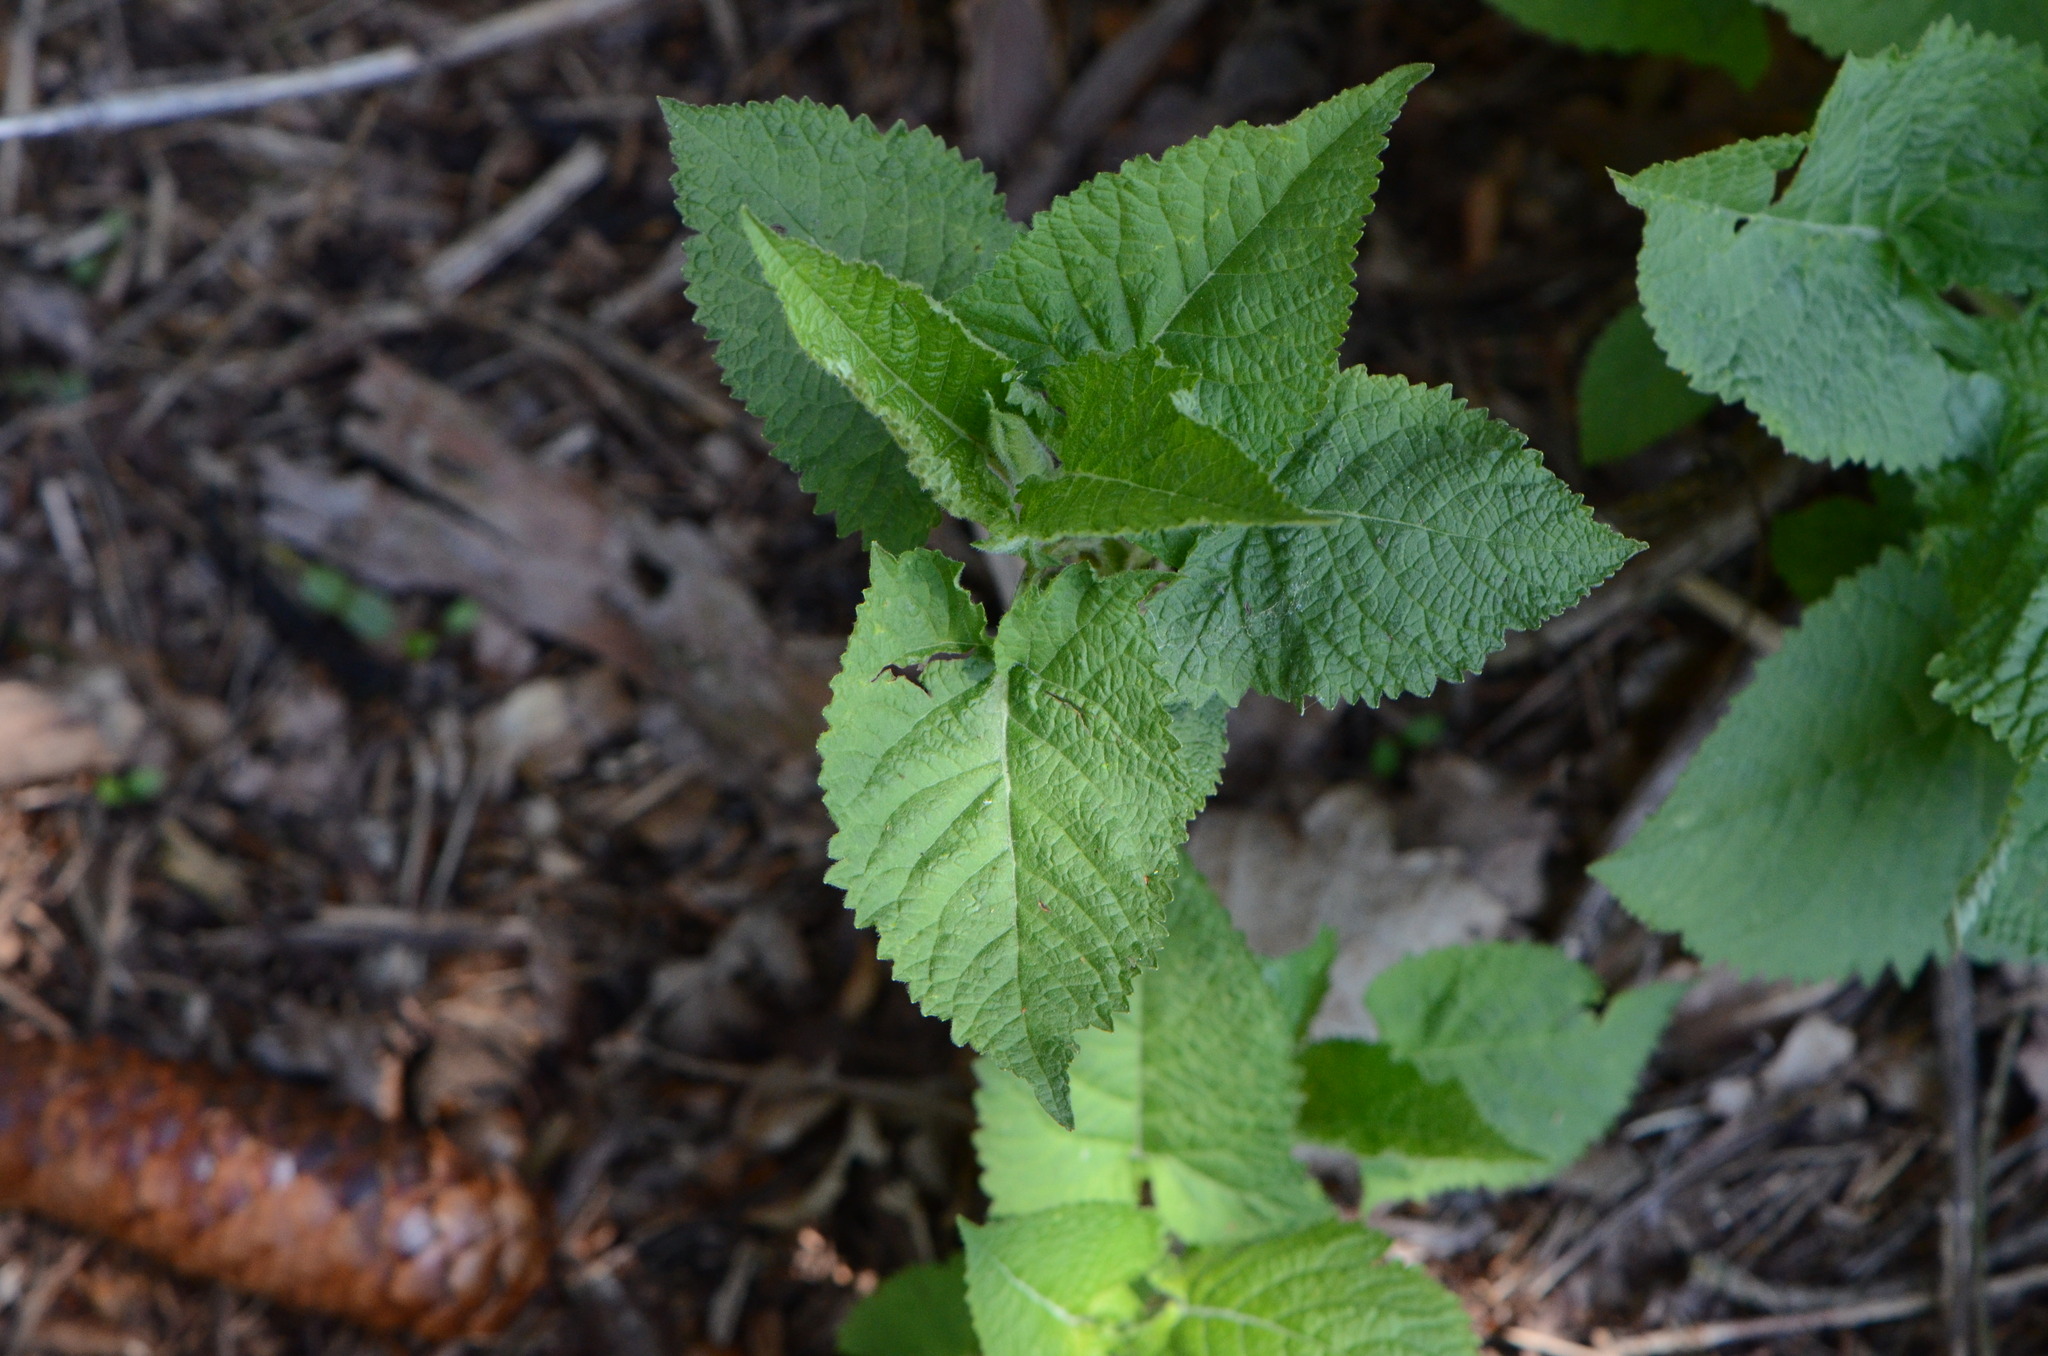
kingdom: Plantae
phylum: Tracheophyta
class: Magnoliopsida
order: Lamiales
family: Lamiaceae
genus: Salvia
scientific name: Salvia glutinosa
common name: Sticky clary
